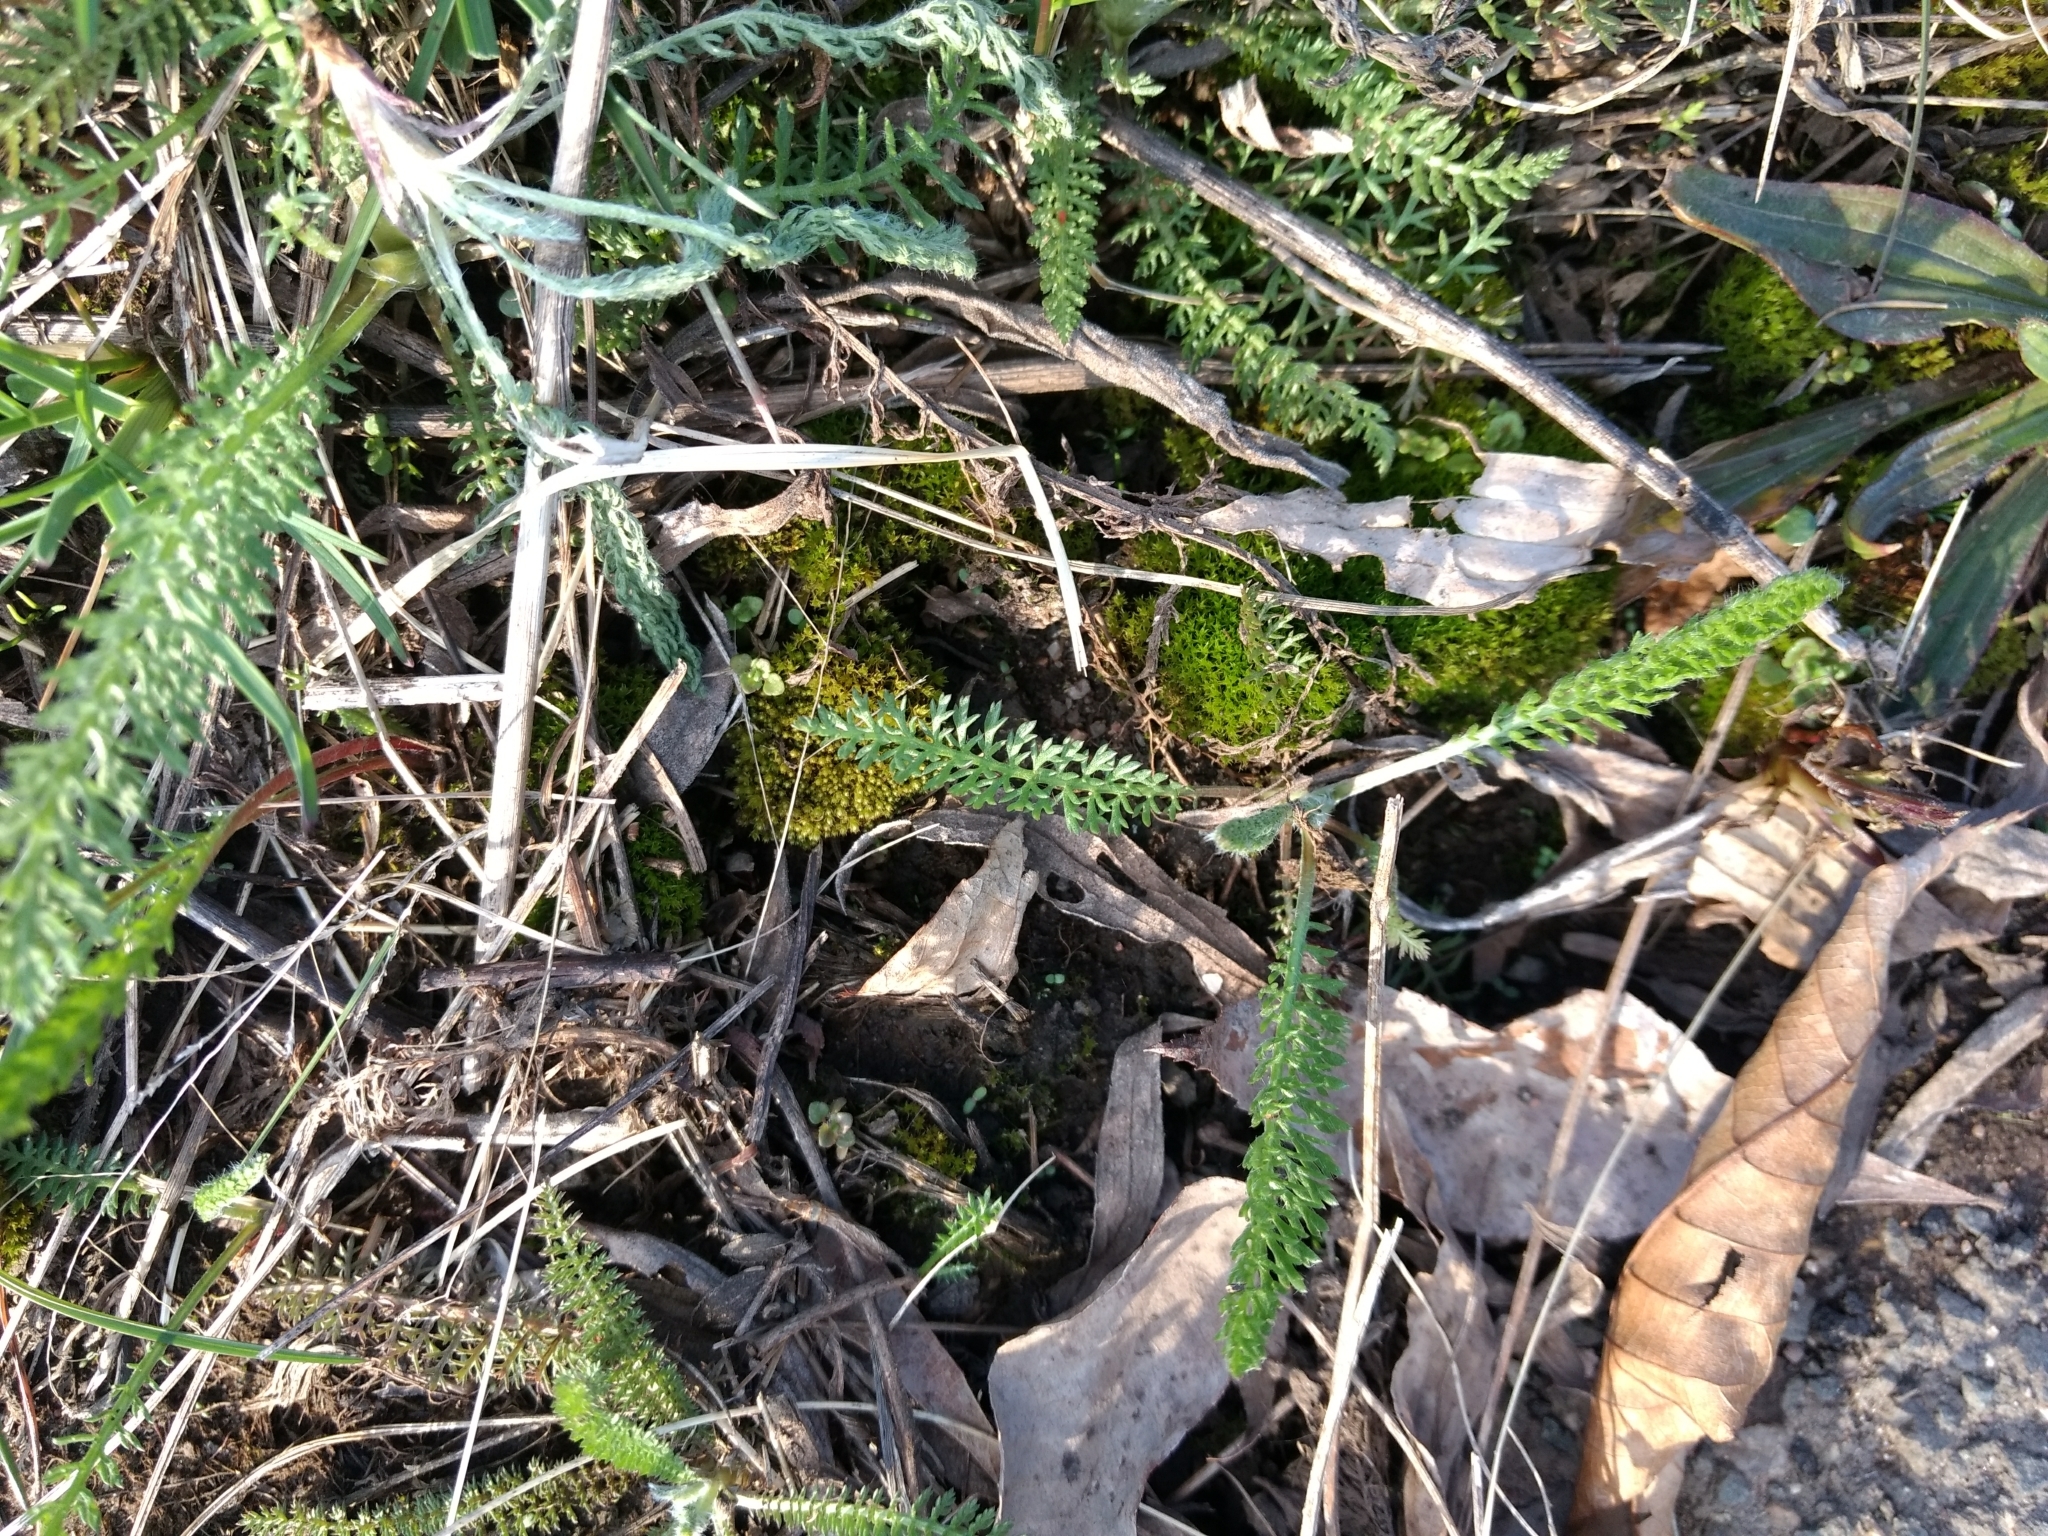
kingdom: Plantae
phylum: Tracheophyta
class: Magnoliopsida
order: Asterales
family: Asteraceae
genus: Achillea
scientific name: Achillea millefolium
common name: Yarrow
